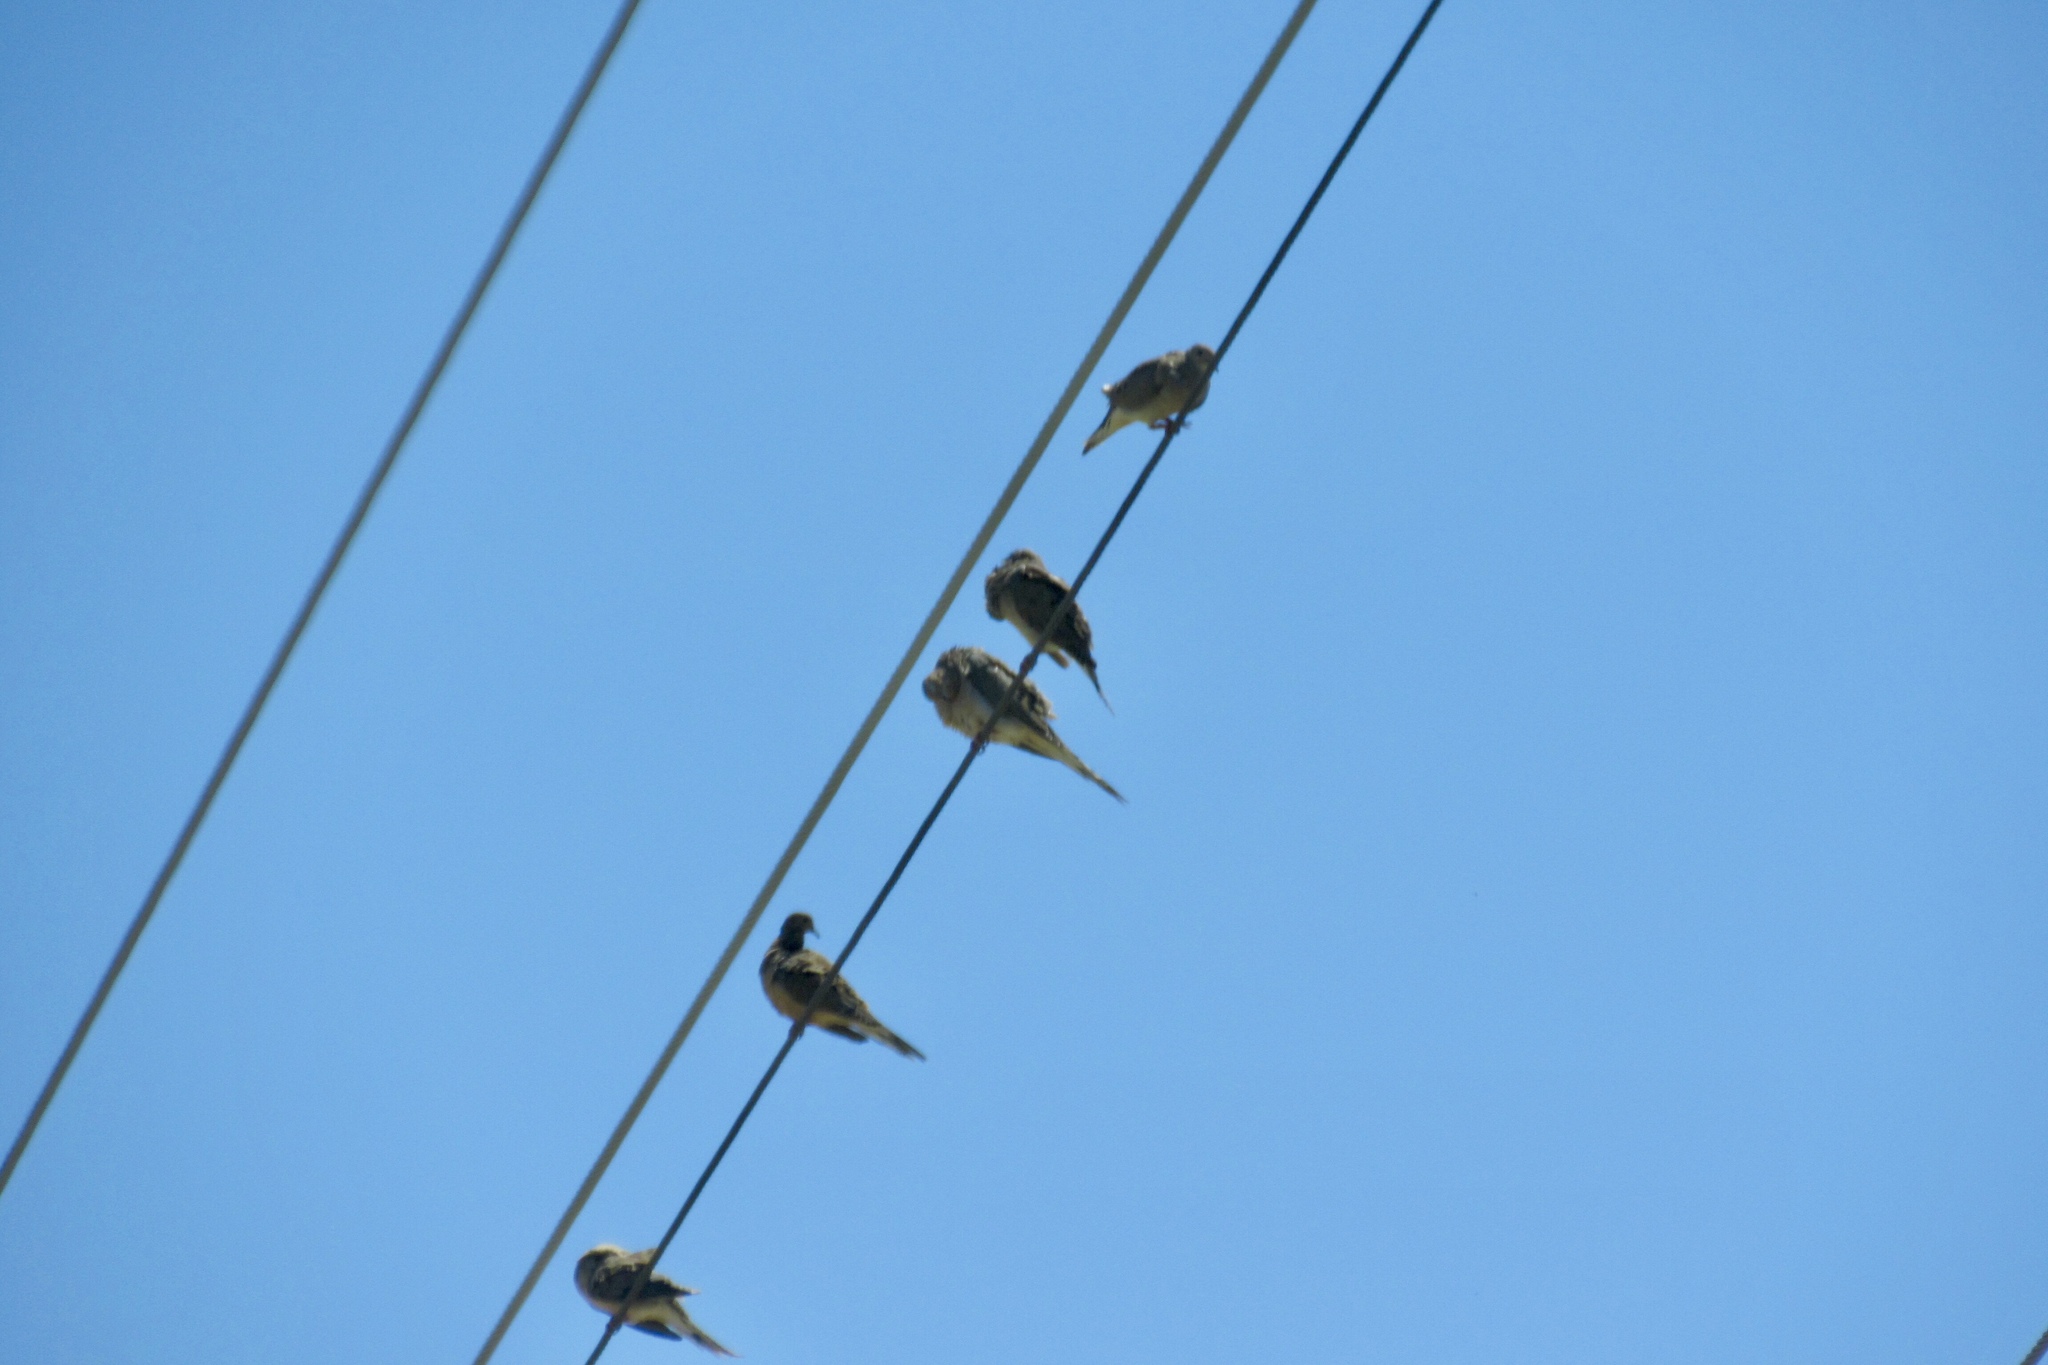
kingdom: Animalia
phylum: Chordata
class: Aves
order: Columbiformes
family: Columbidae
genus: Zenaida
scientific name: Zenaida macroura
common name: Mourning dove
